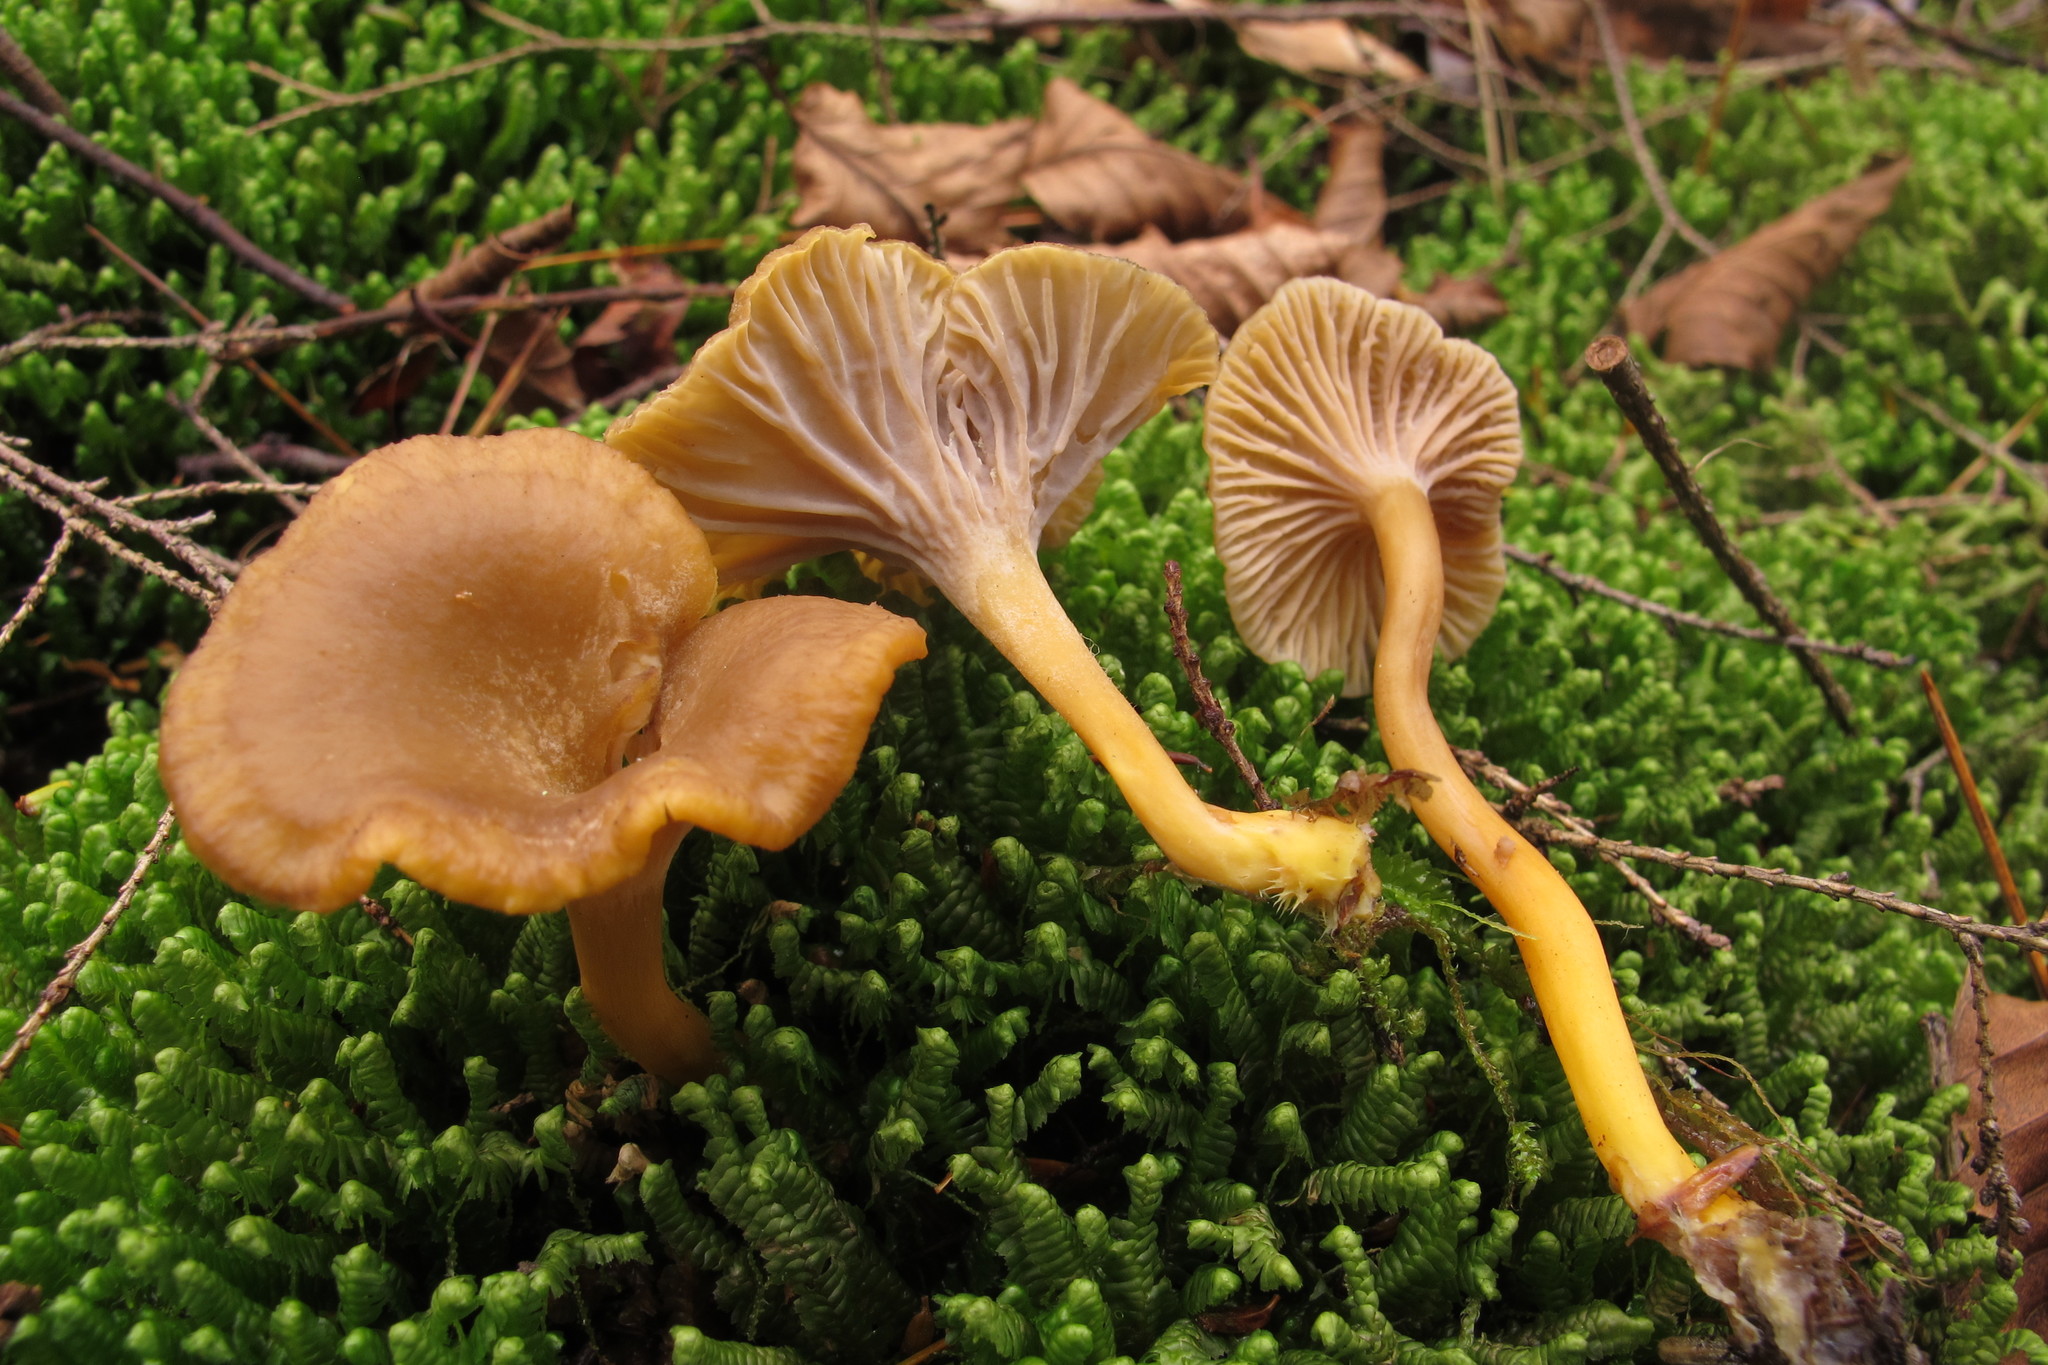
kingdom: Fungi
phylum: Basidiomycota
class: Agaricomycetes
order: Cantharellales
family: Hydnaceae
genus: Craterellus
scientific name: Craterellus tubaeformis
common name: Yellowfoot
